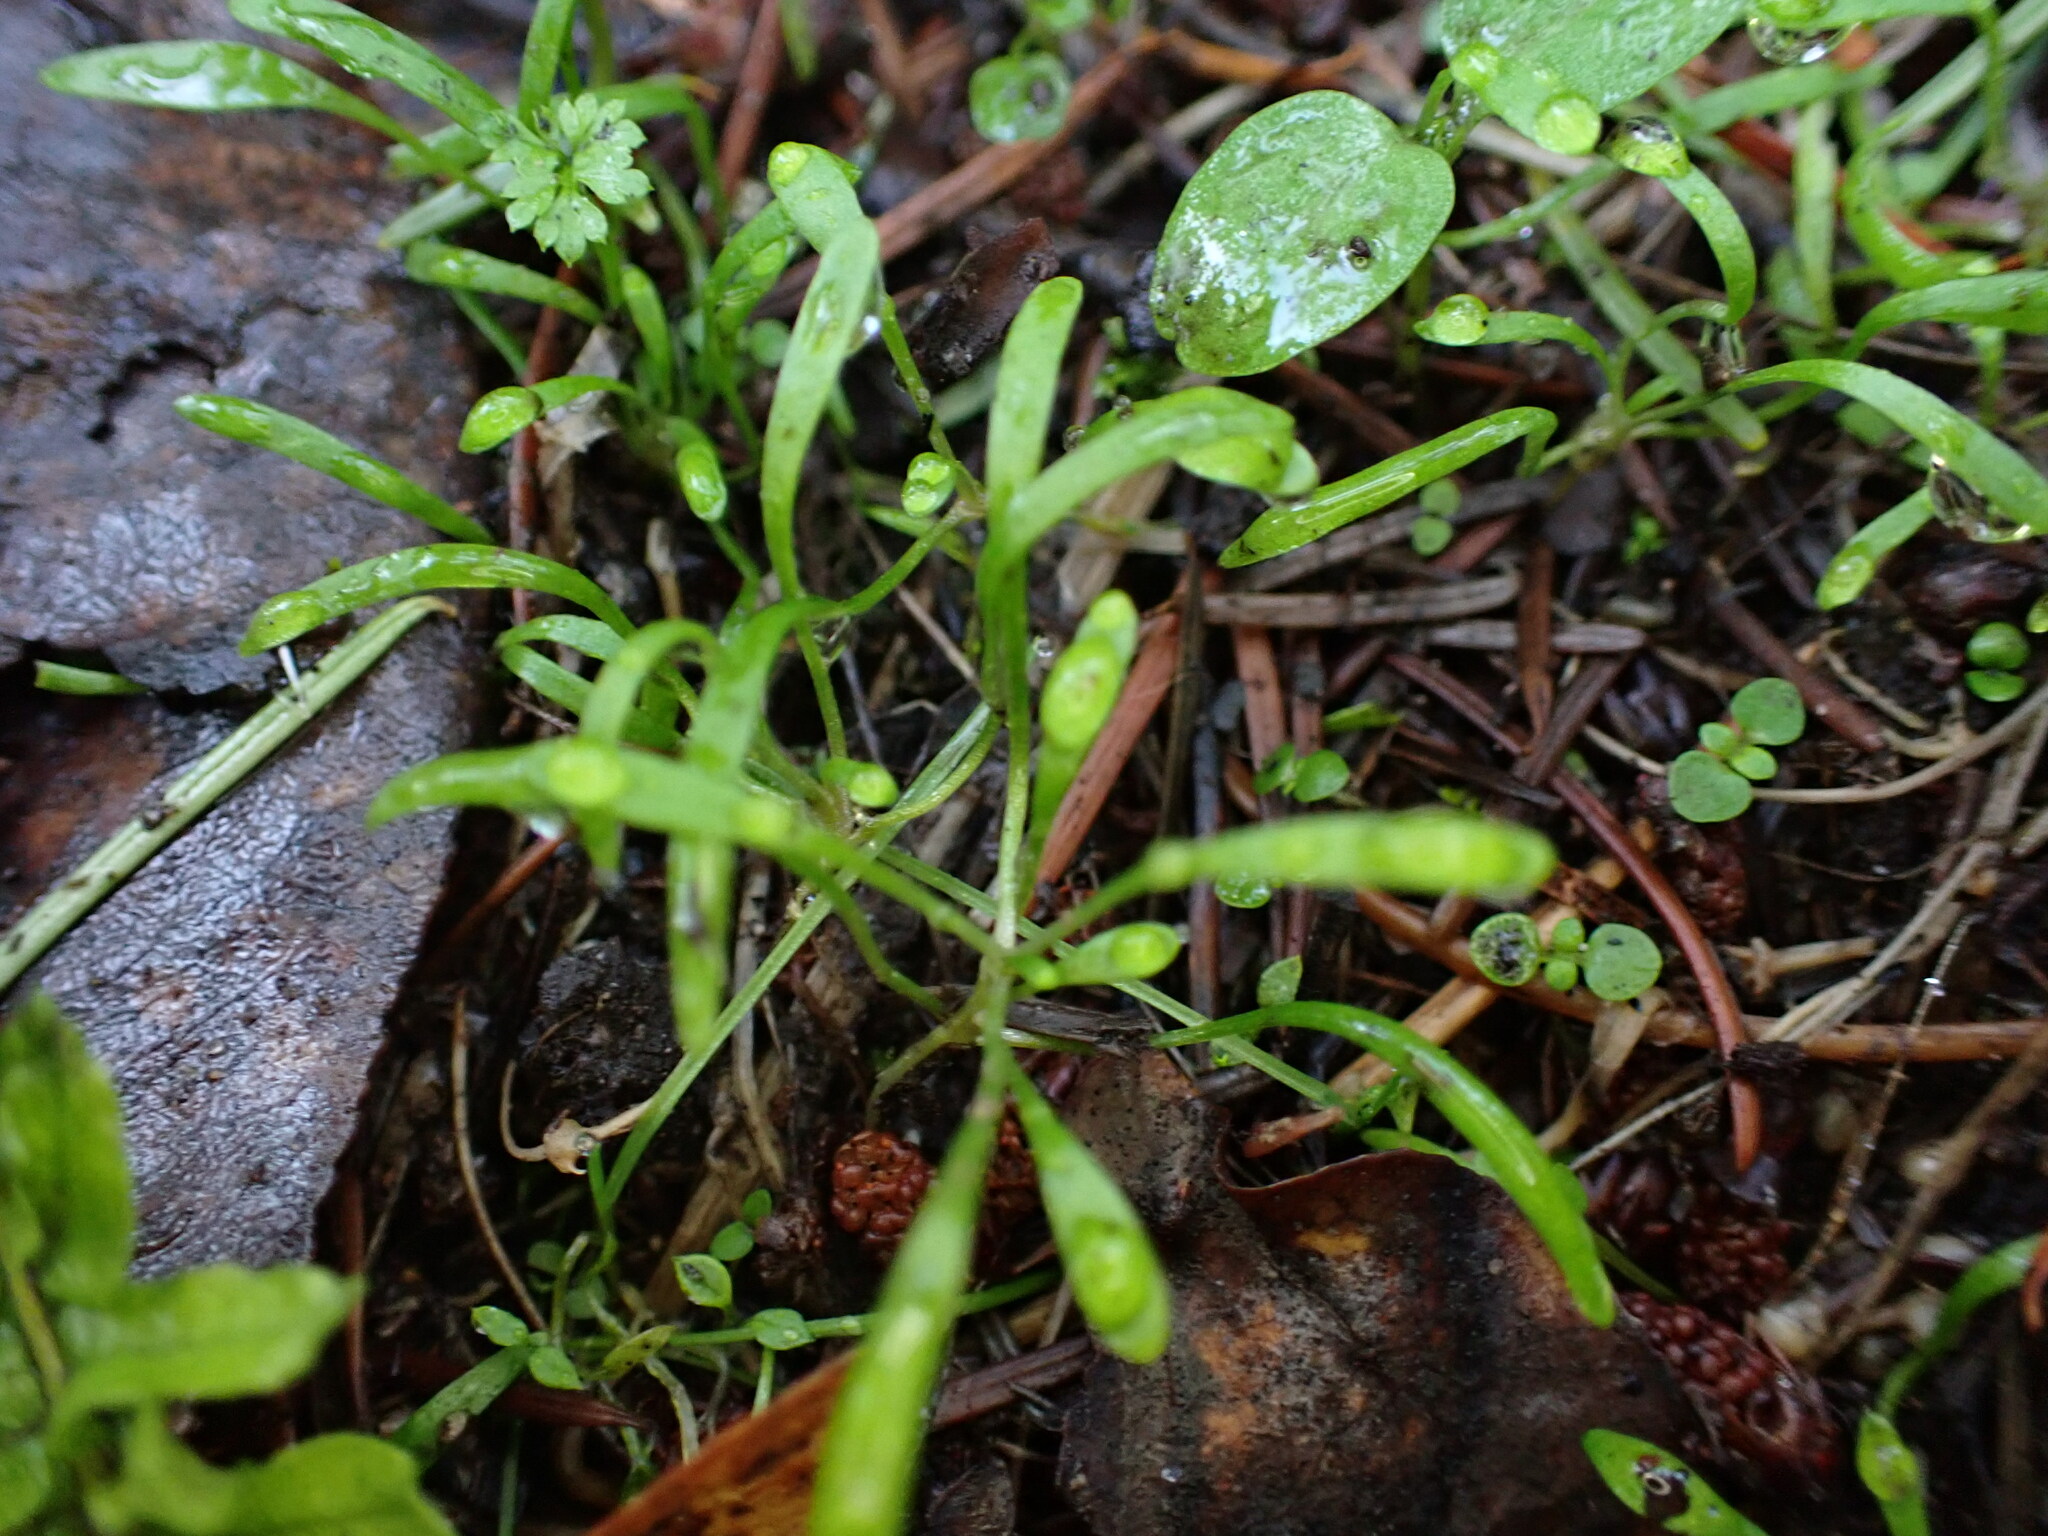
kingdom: Plantae
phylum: Tracheophyta
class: Magnoliopsida
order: Caryophyllales
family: Montiaceae
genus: Claytonia
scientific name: Claytonia perfoliata
